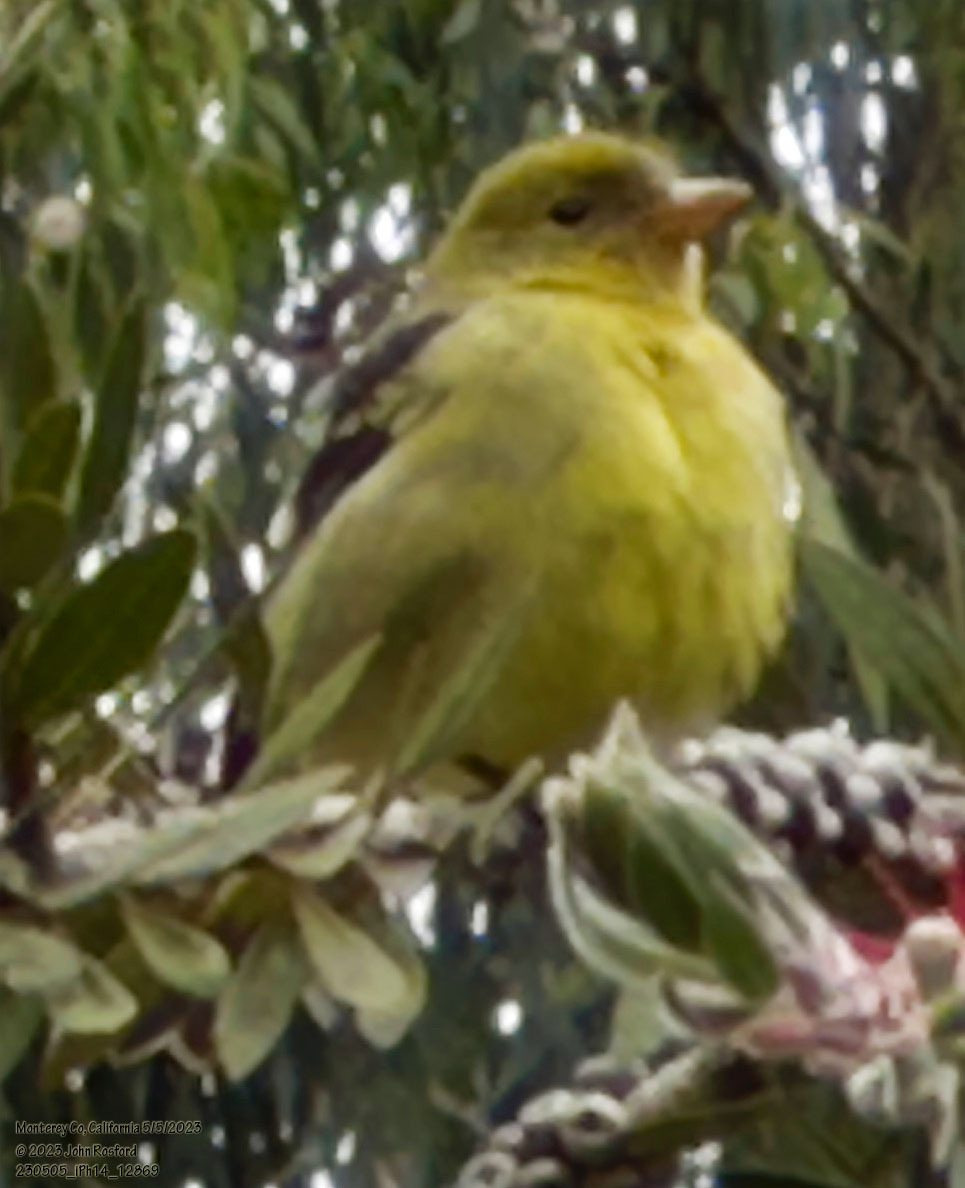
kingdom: Animalia
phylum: Chordata
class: Aves
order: Passeriformes
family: Cardinalidae
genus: Piranga
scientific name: Piranga ludoviciana
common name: Western tanager
